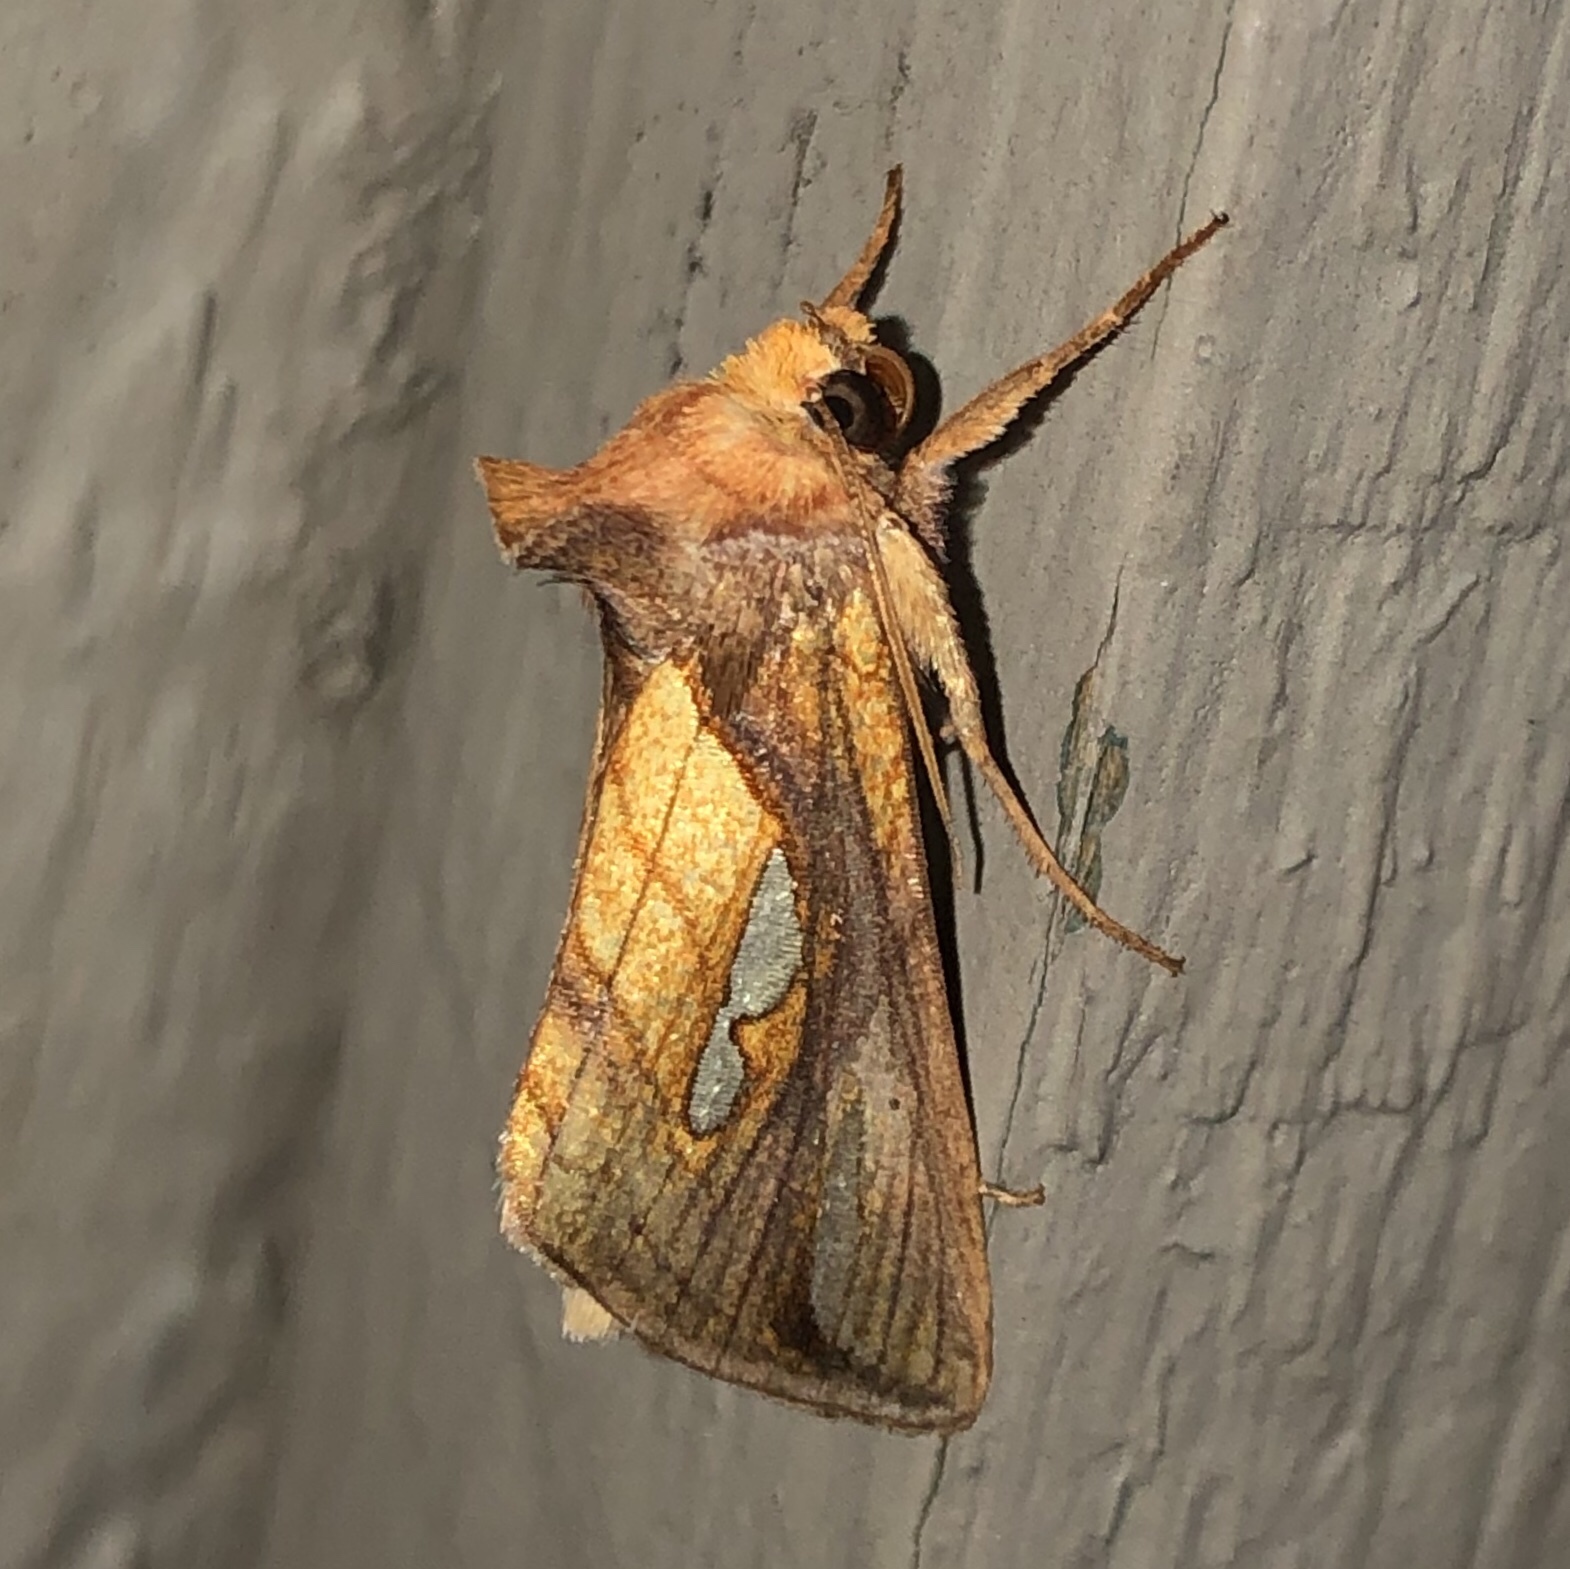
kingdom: Animalia
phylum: Arthropoda
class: Insecta
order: Lepidoptera
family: Noctuidae
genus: Plusia
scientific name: Plusia contexta
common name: Connected looper moth
